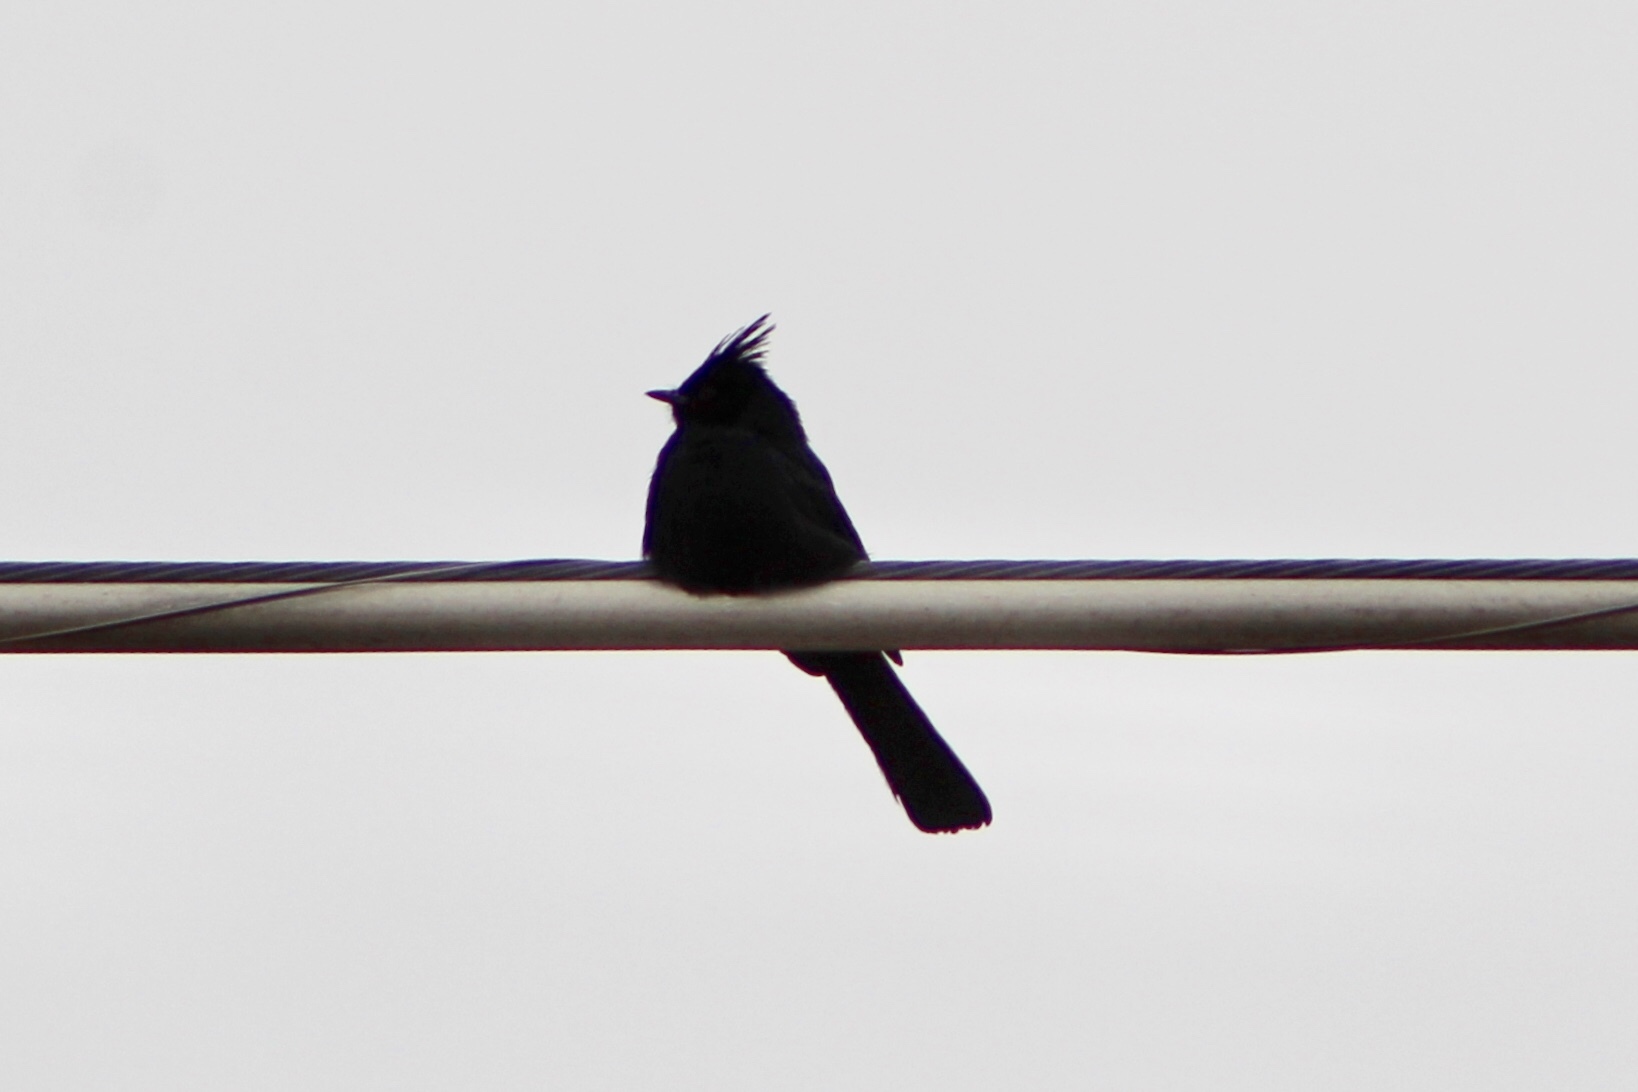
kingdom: Animalia
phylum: Chordata
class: Aves
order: Passeriformes
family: Ptilogonatidae
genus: Phainopepla
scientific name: Phainopepla nitens
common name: Phainopepla
